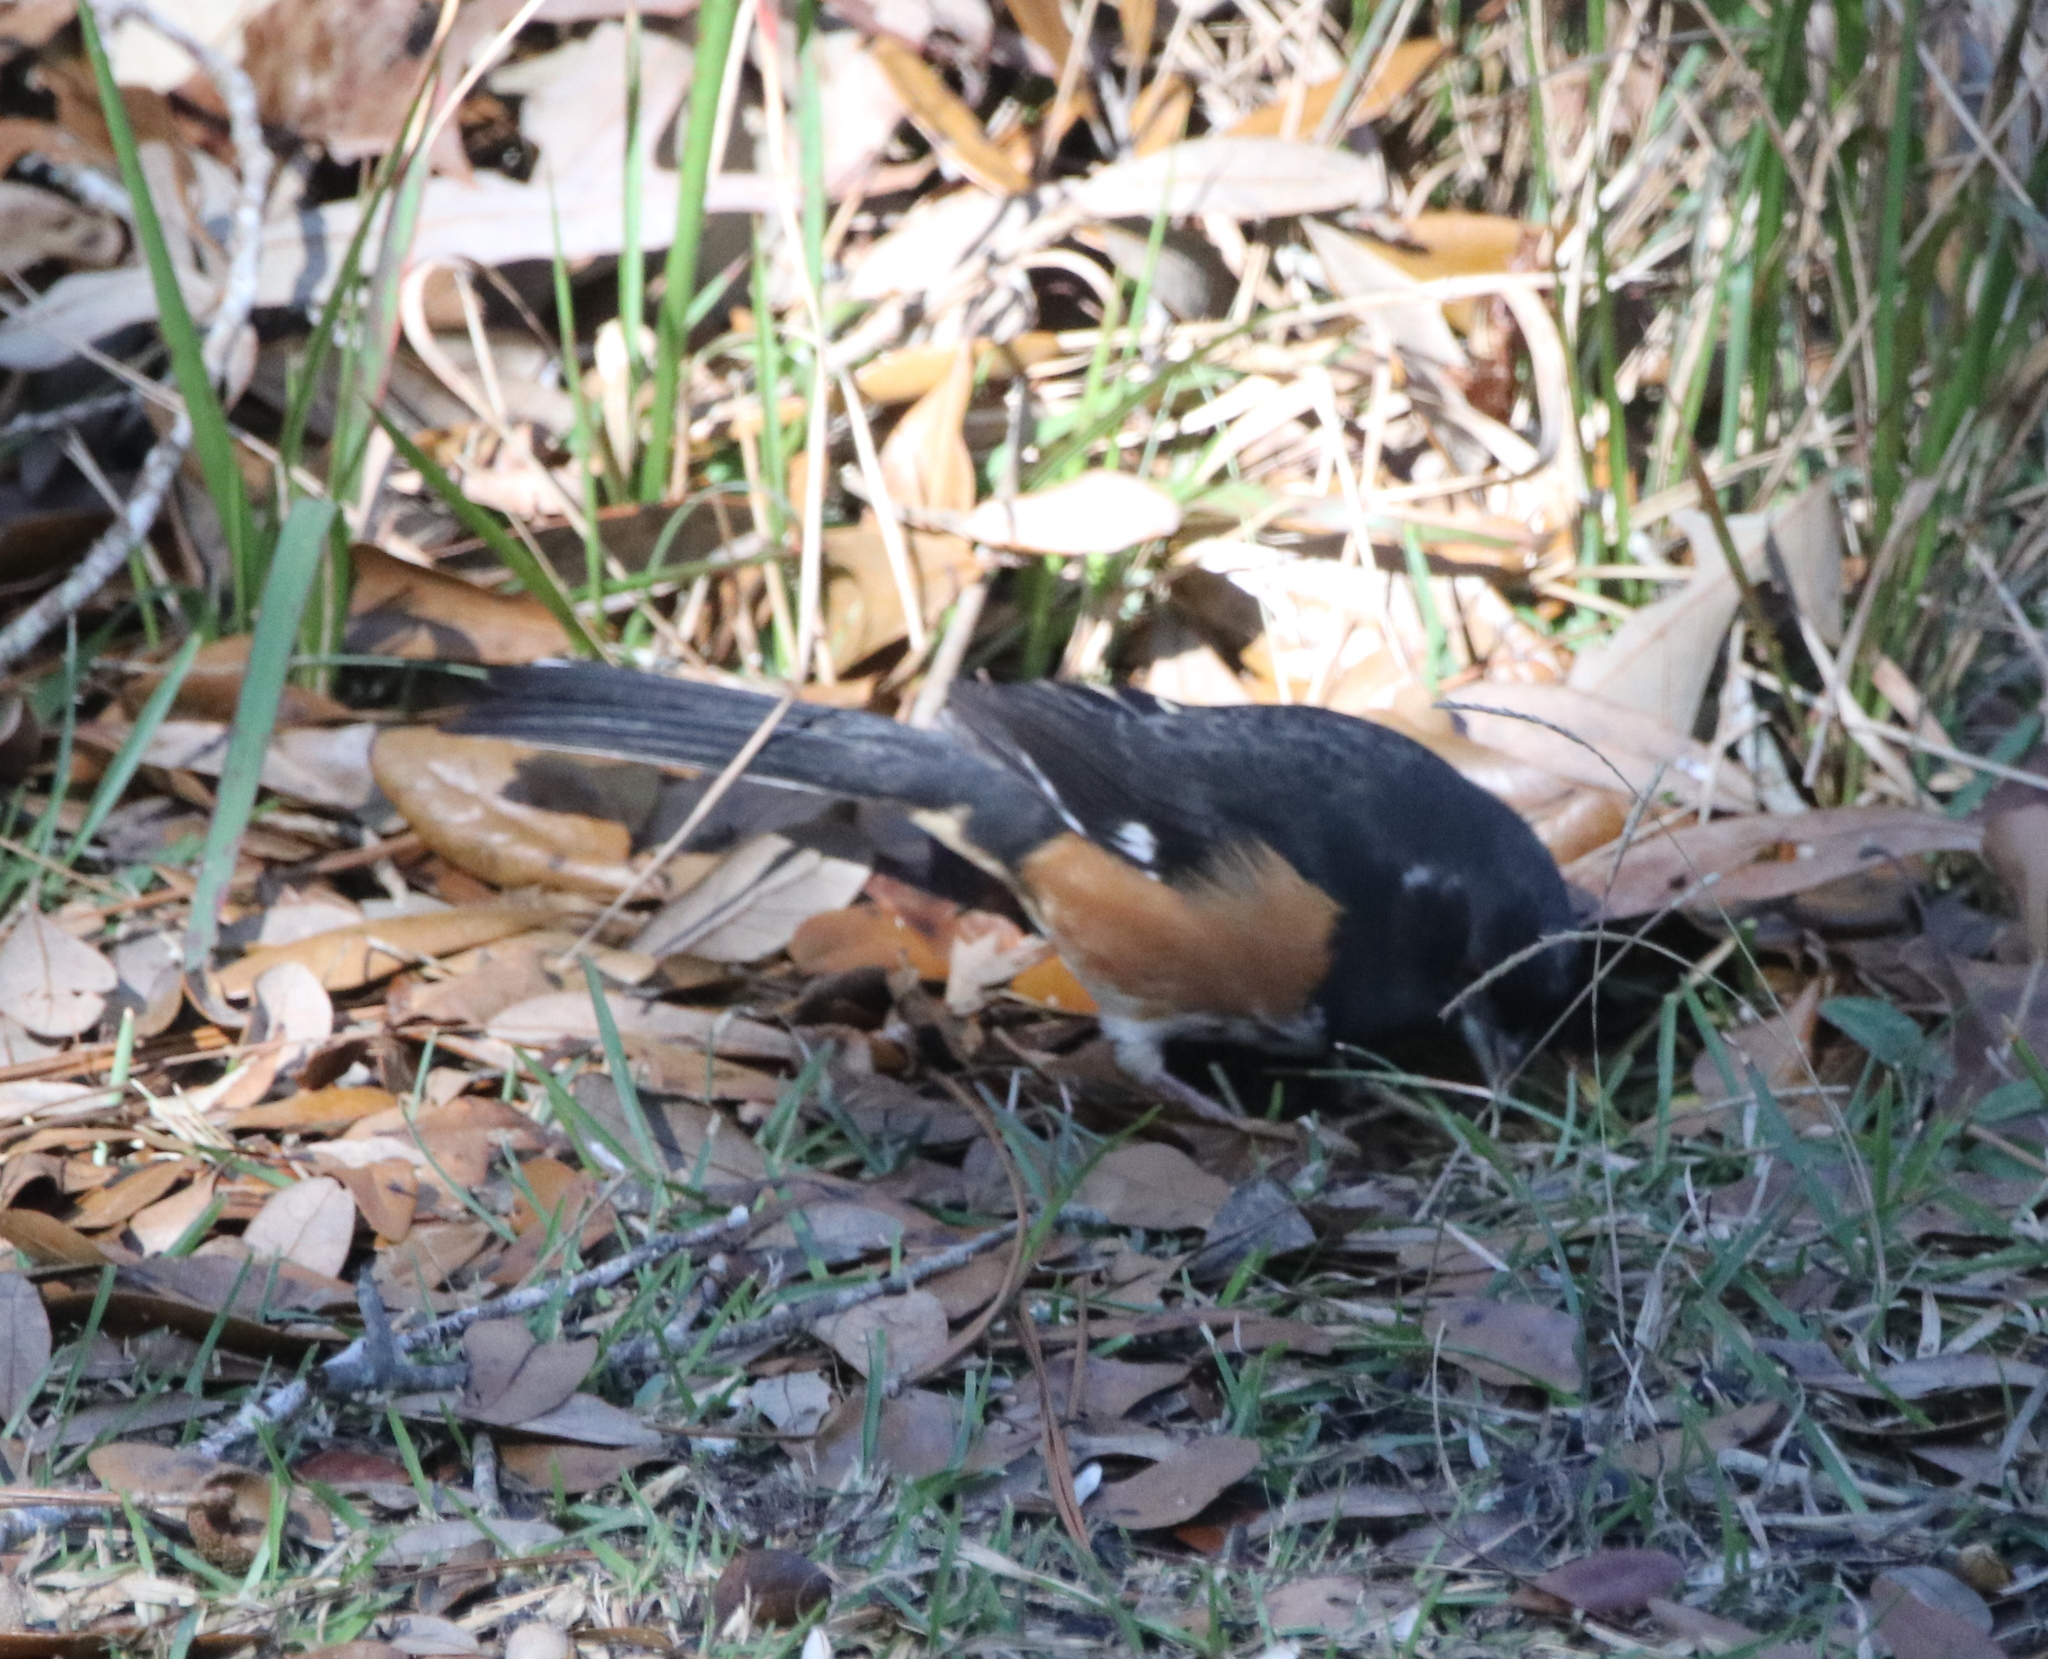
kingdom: Animalia
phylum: Chordata
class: Aves
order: Passeriformes
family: Passerellidae
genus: Pipilo
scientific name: Pipilo erythrophthalmus
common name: Eastern towhee
